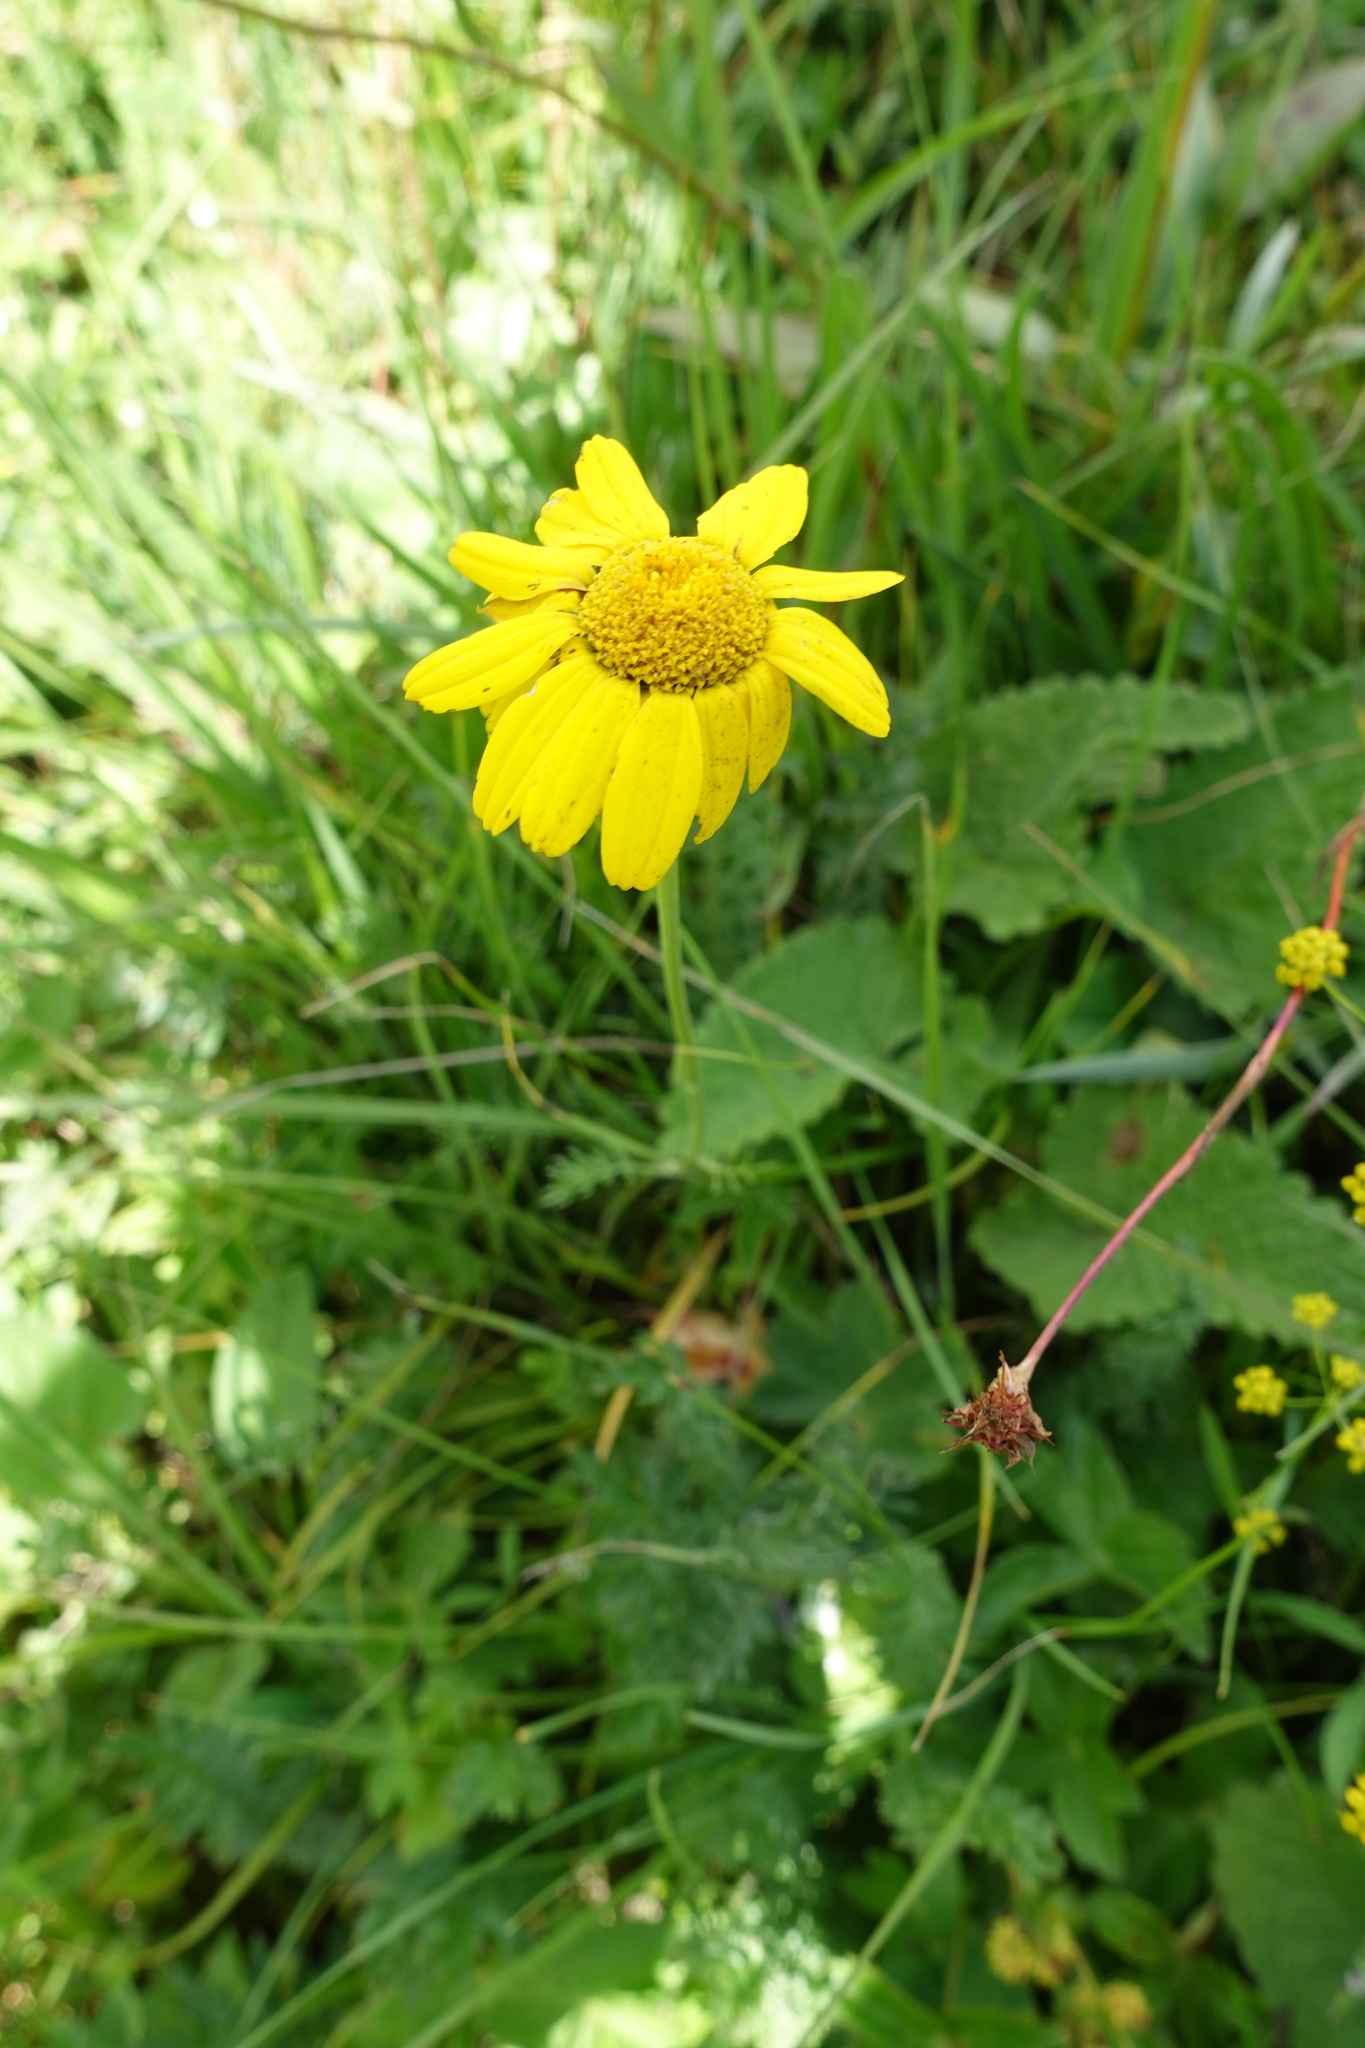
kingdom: Plantae
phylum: Tracheophyta
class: Magnoliopsida
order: Asterales
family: Asteraceae
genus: Archanthemis
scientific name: Archanthemis marschalliana
